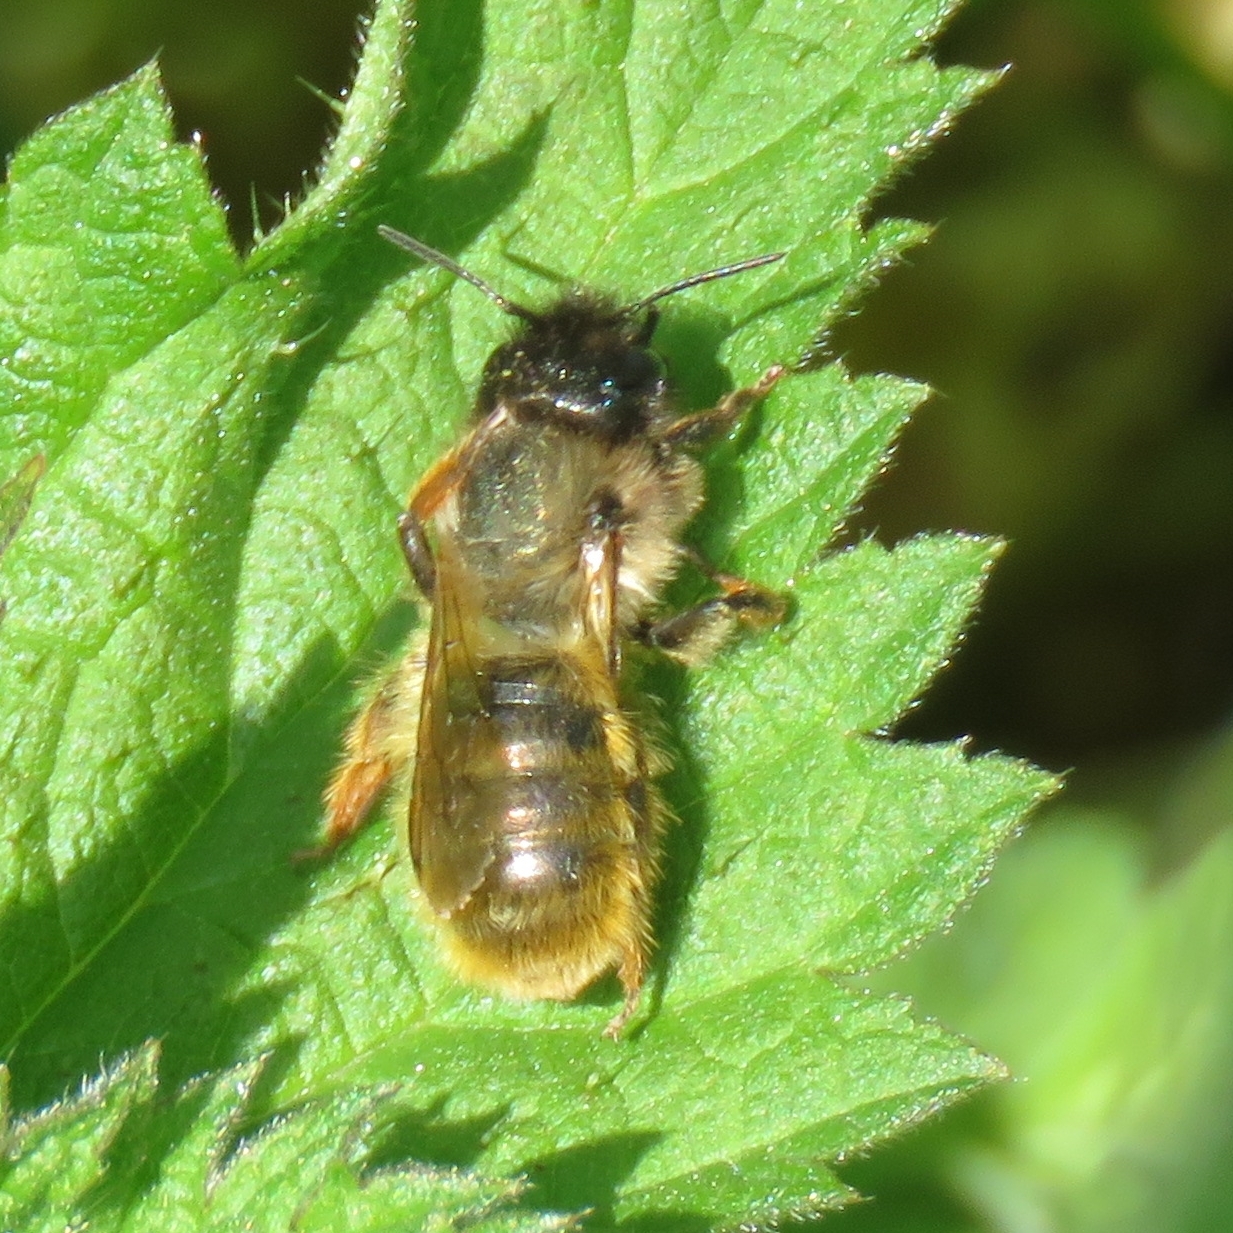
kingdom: Animalia
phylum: Arthropoda
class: Insecta
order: Hymenoptera
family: Megachilidae
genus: Osmia
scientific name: Osmia bicornis
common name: Red mason bee
